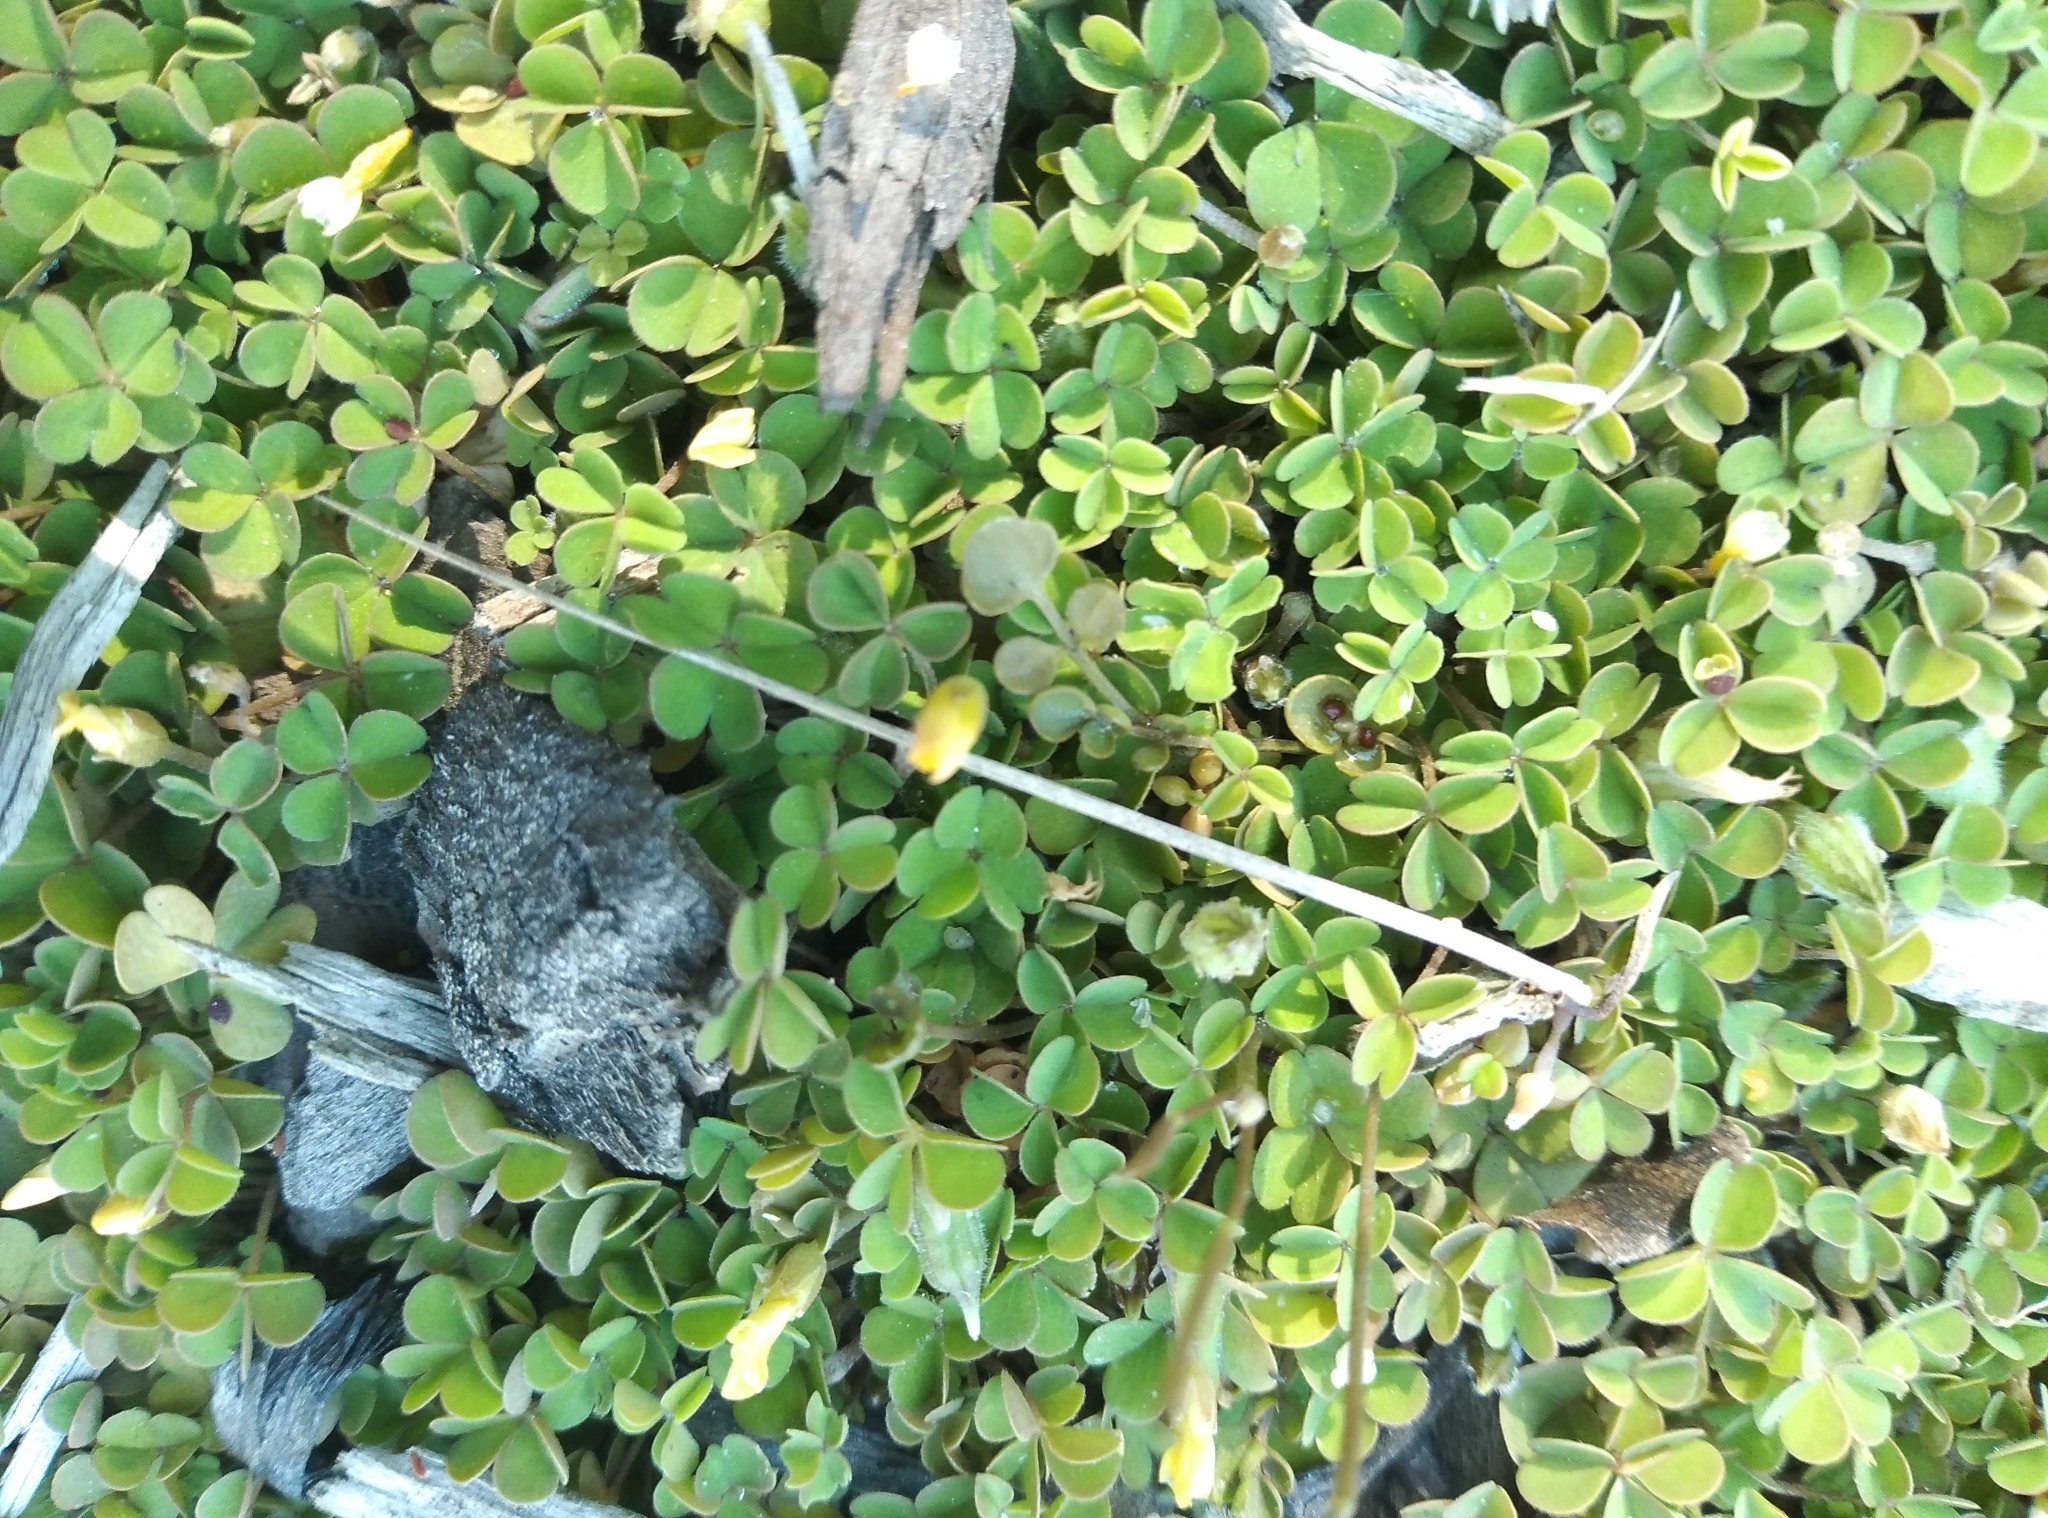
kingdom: Plantae
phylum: Tracheophyta
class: Magnoliopsida
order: Oxalidales
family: Oxalidaceae
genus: Oxalis
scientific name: Oxalis exilis
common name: Least yellow-sorrel
